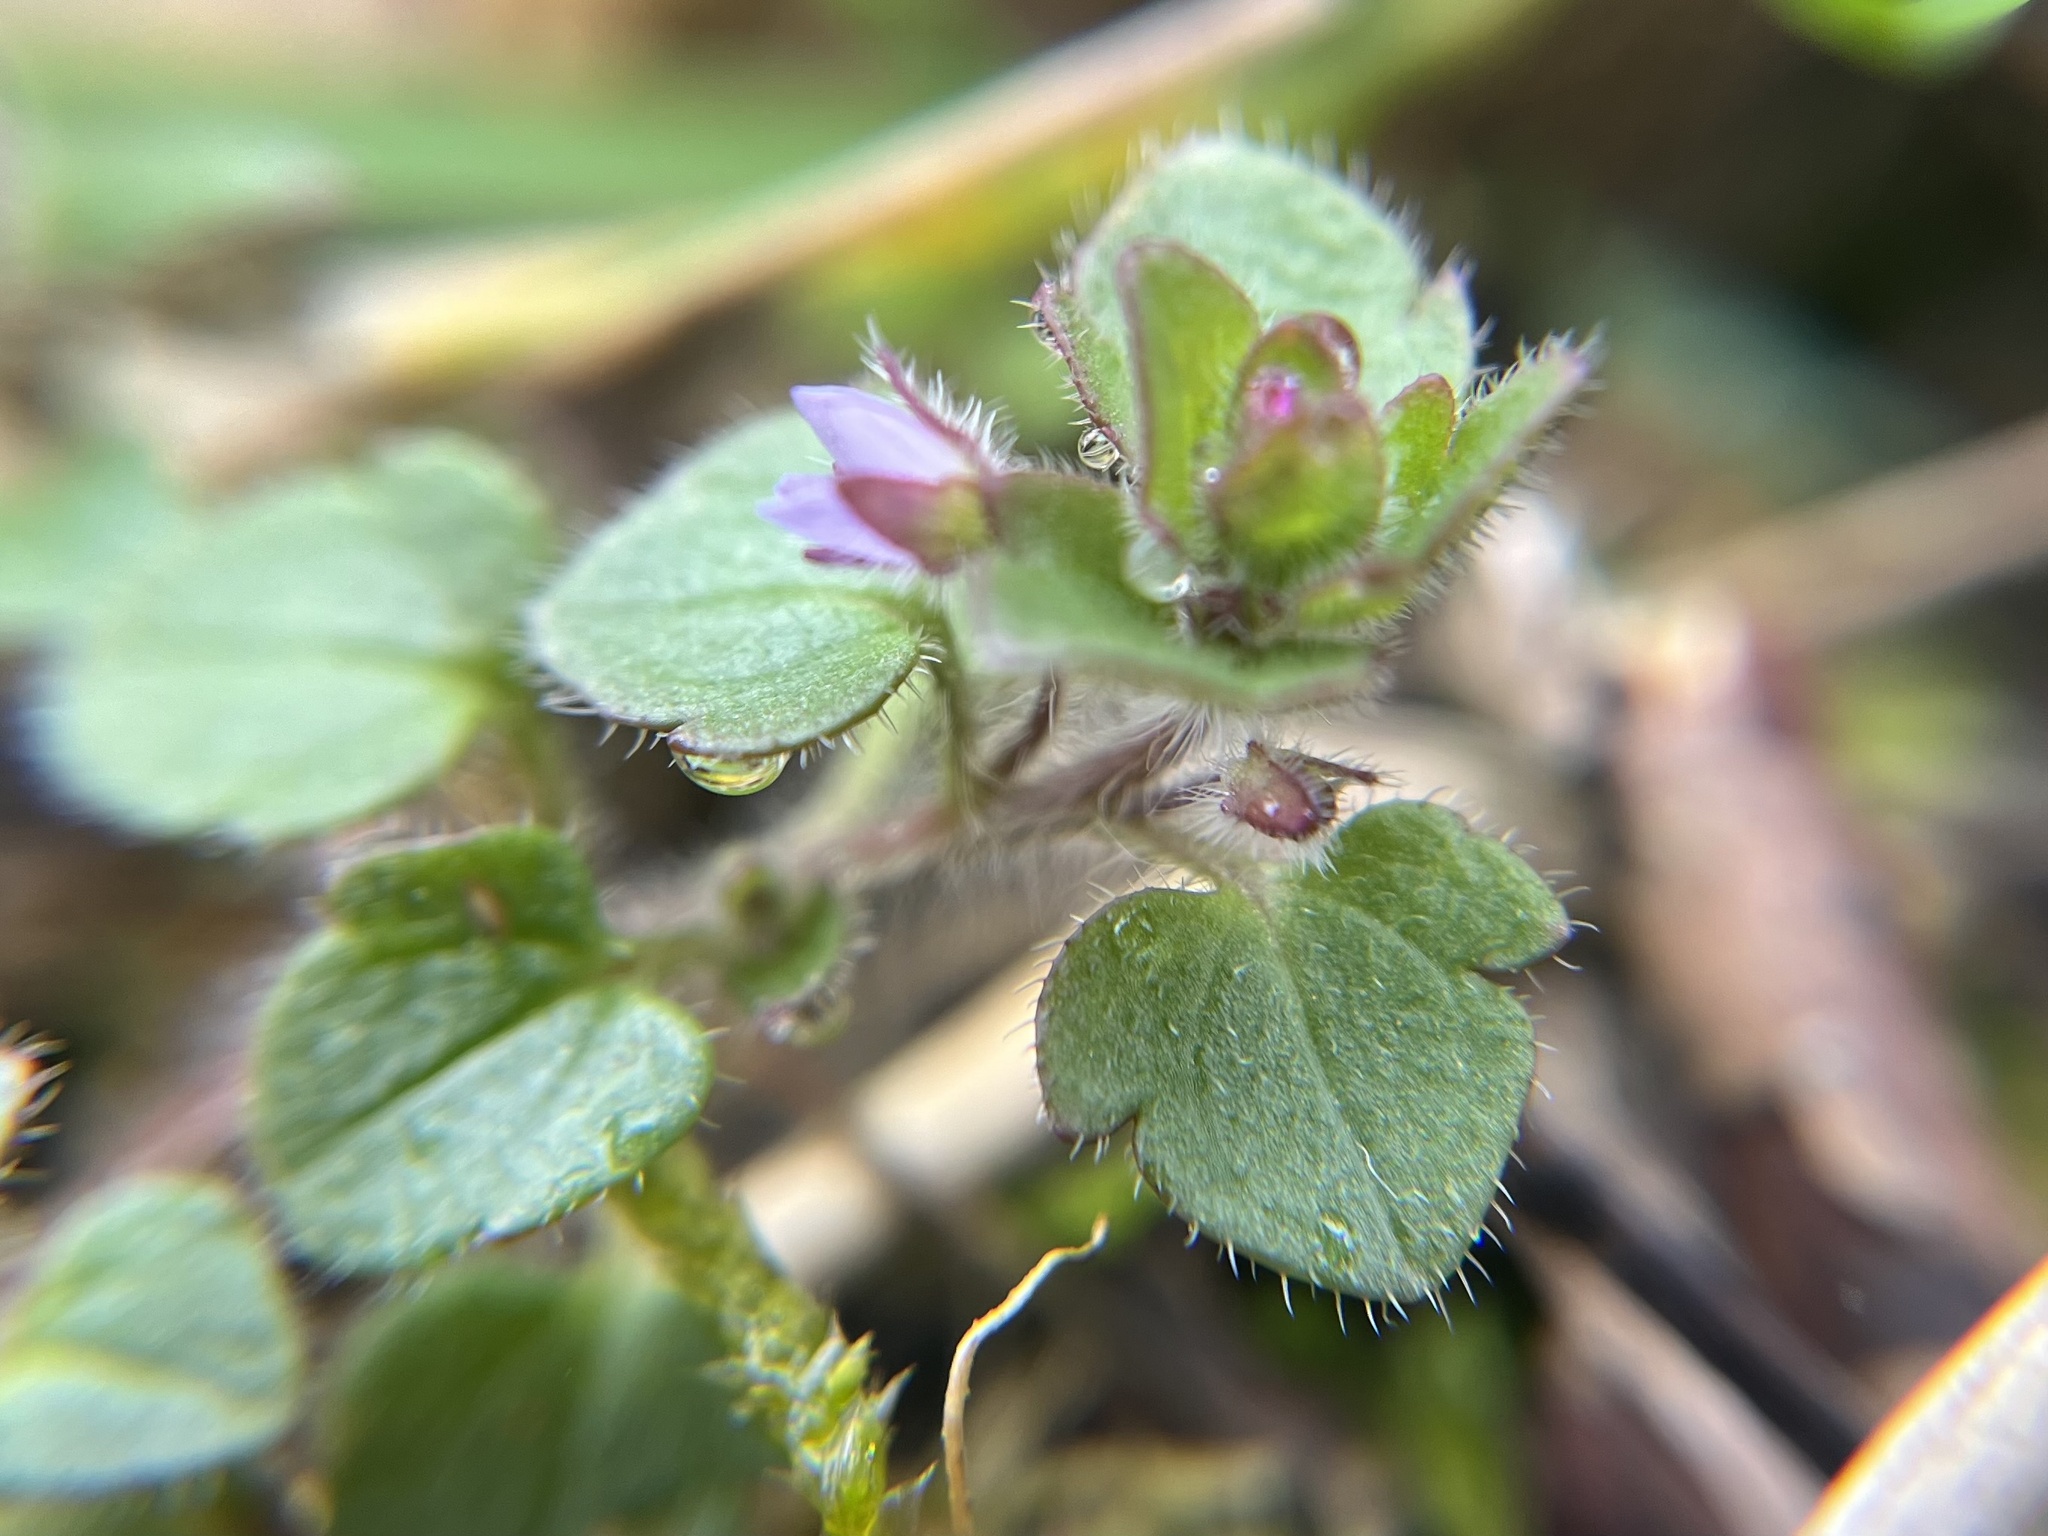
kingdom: Plantae
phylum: Tracheophyta
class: Magnoliopsida
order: Lamiales
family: Plantaginaceae
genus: Veronica
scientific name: Veronica sublobata
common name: False ivy-leaved speedwell
